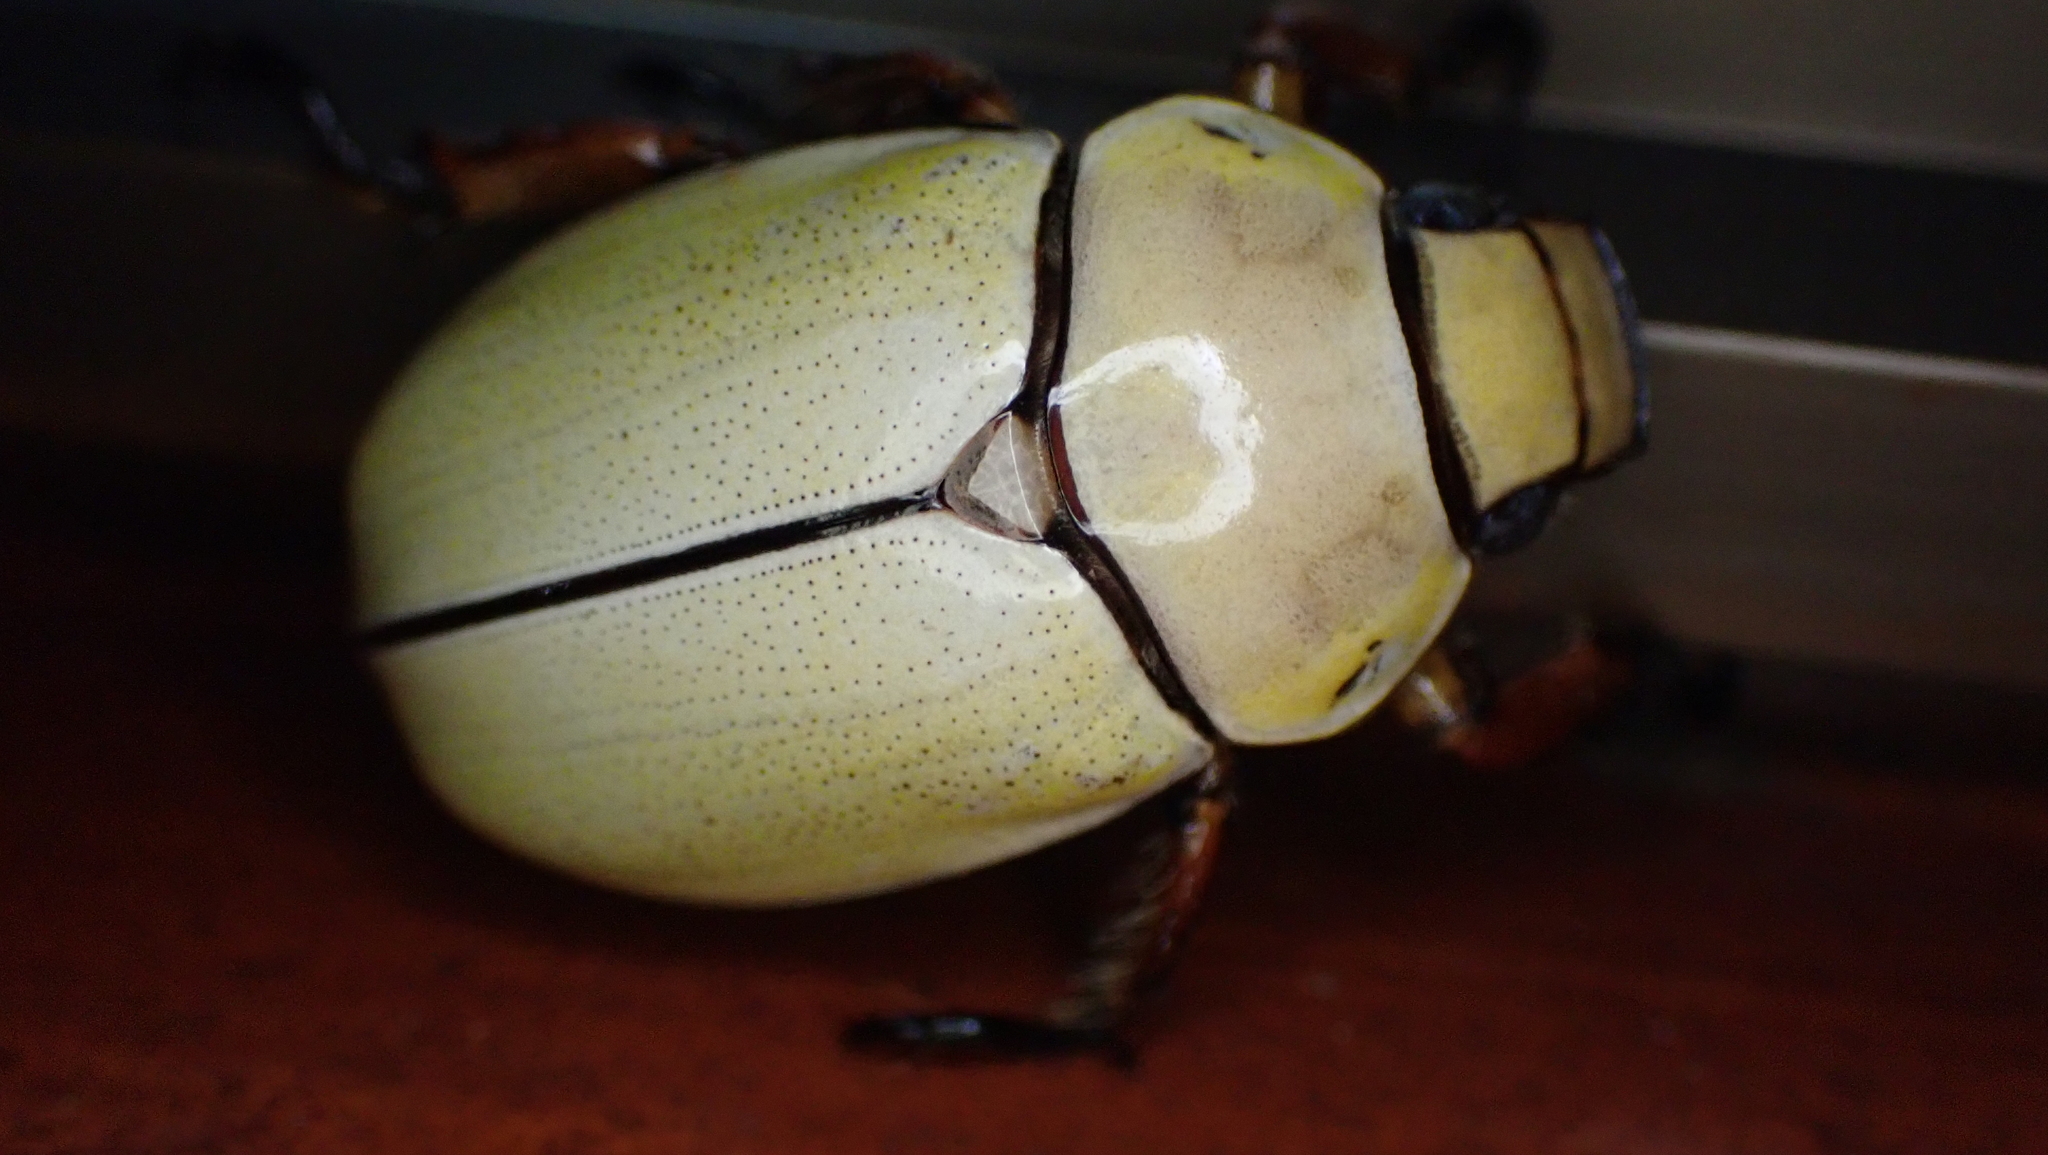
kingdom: Animalia
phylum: Arthropoda
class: Insecta
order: Coleoptera
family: Scarabaeidae
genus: Phalangogonia
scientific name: Phalangogonia sperata
